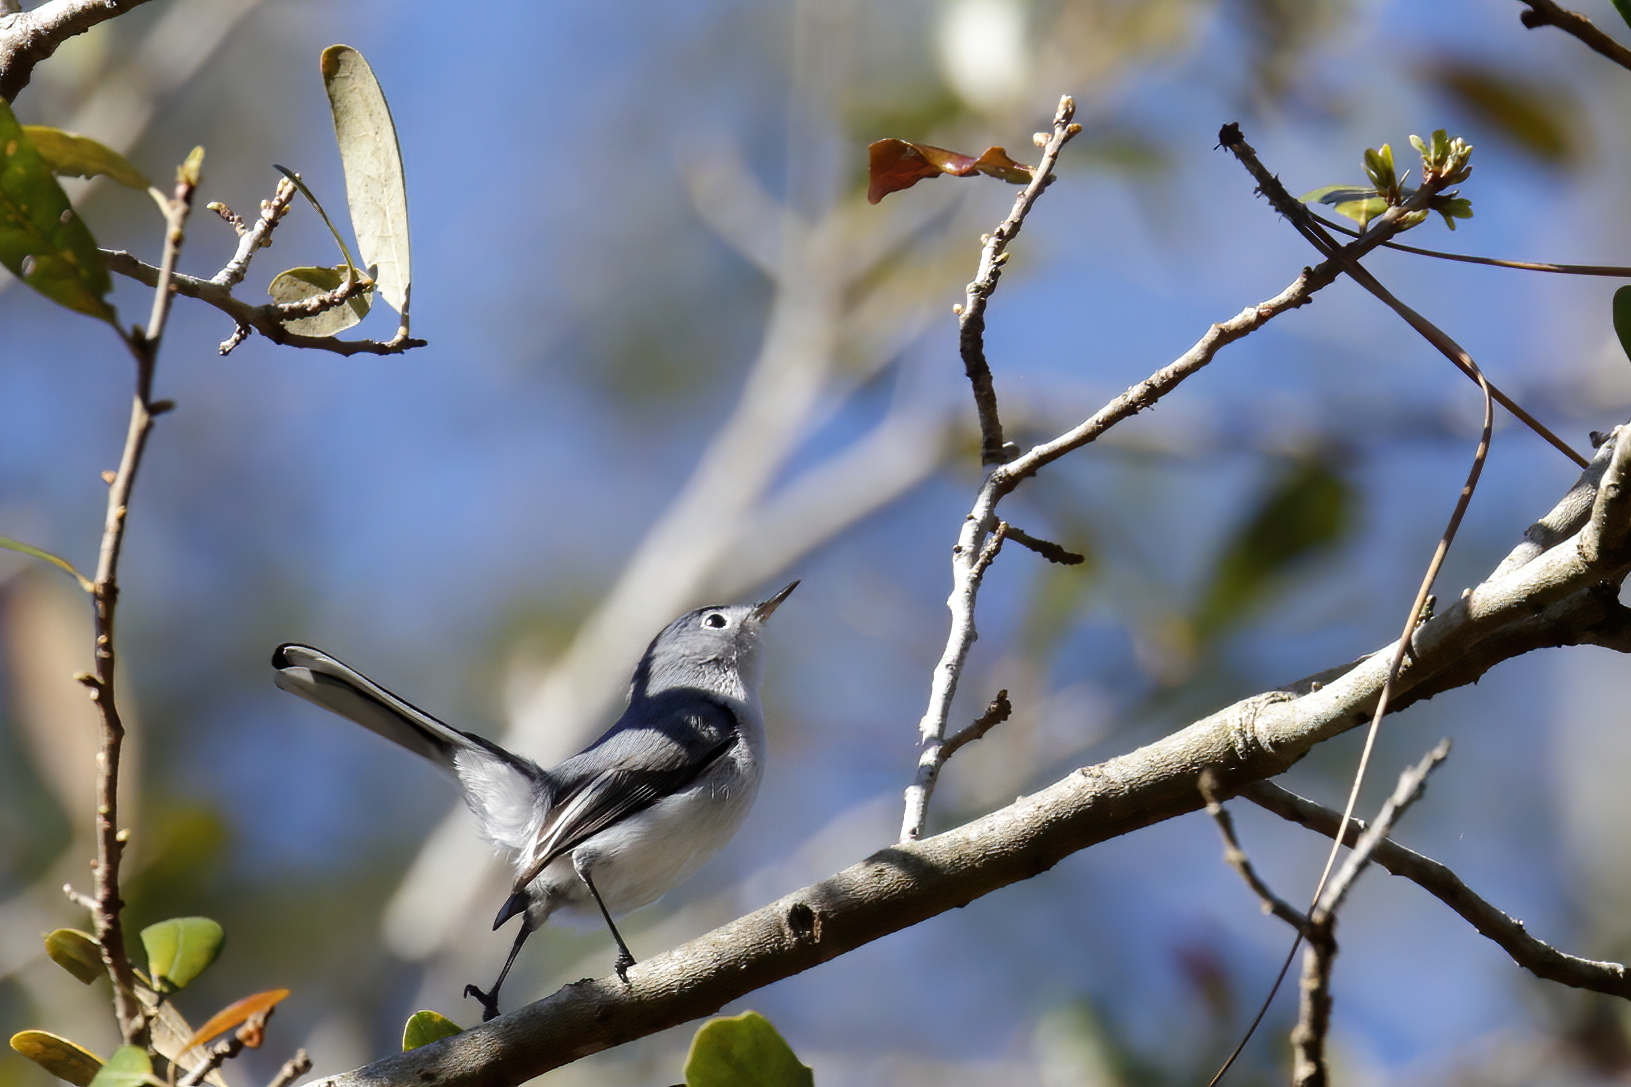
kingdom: Animalia
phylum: Chordata
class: Aves
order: Passeriformes
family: Polioptilidae
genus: Polioptila
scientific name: Polioptila caerulea
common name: Blue-gray gnatcatcher
